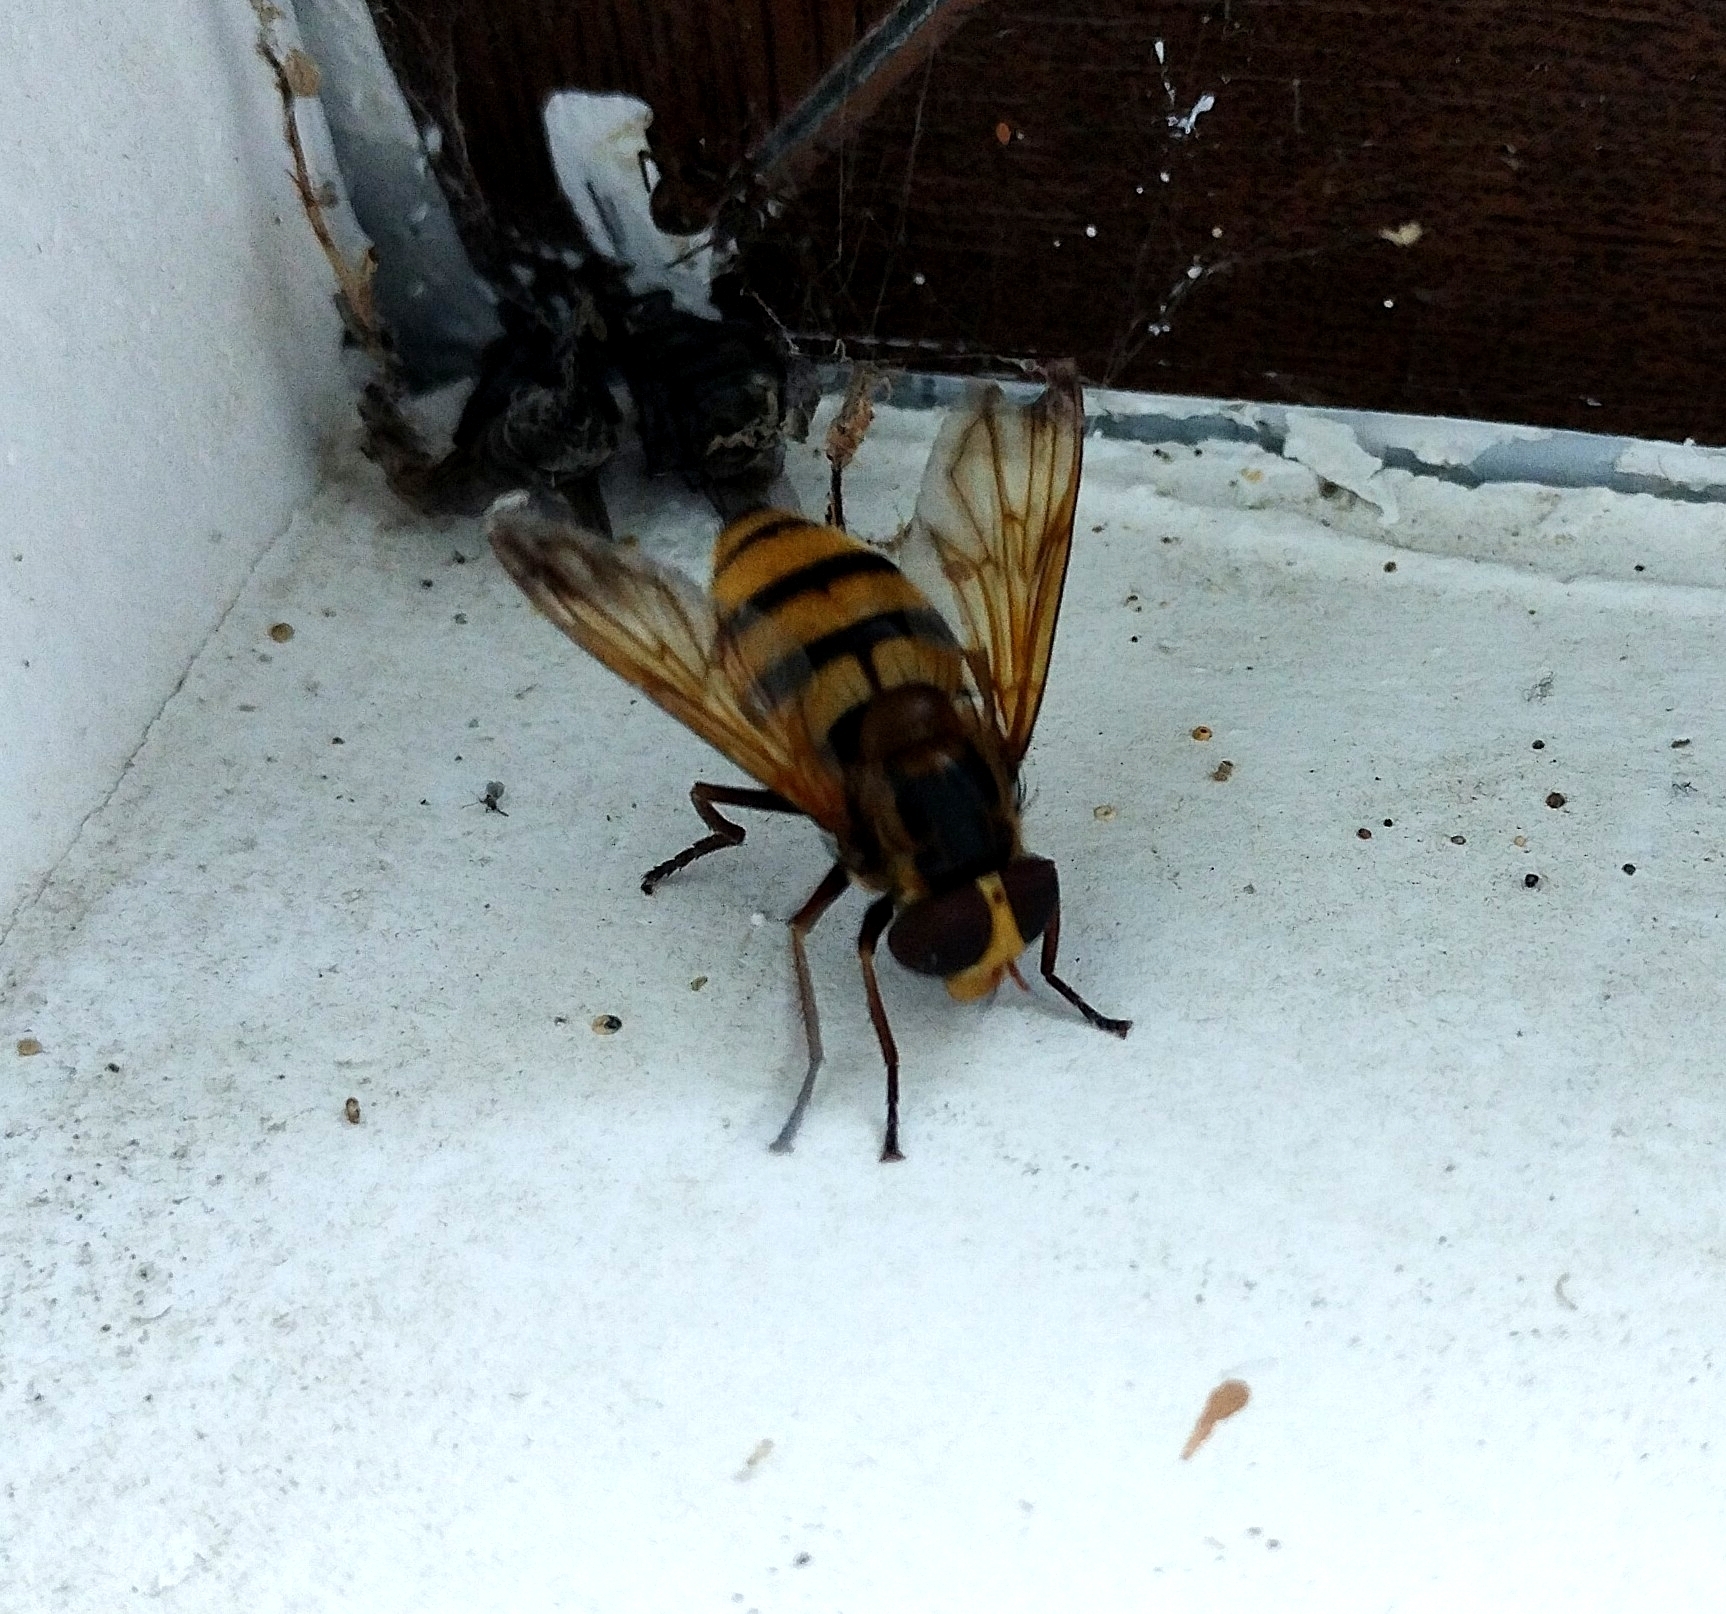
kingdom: Animalia
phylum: Arthropoda
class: Insecta
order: Diptera
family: Syrphidae
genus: Volucella
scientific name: Volucella inanis
